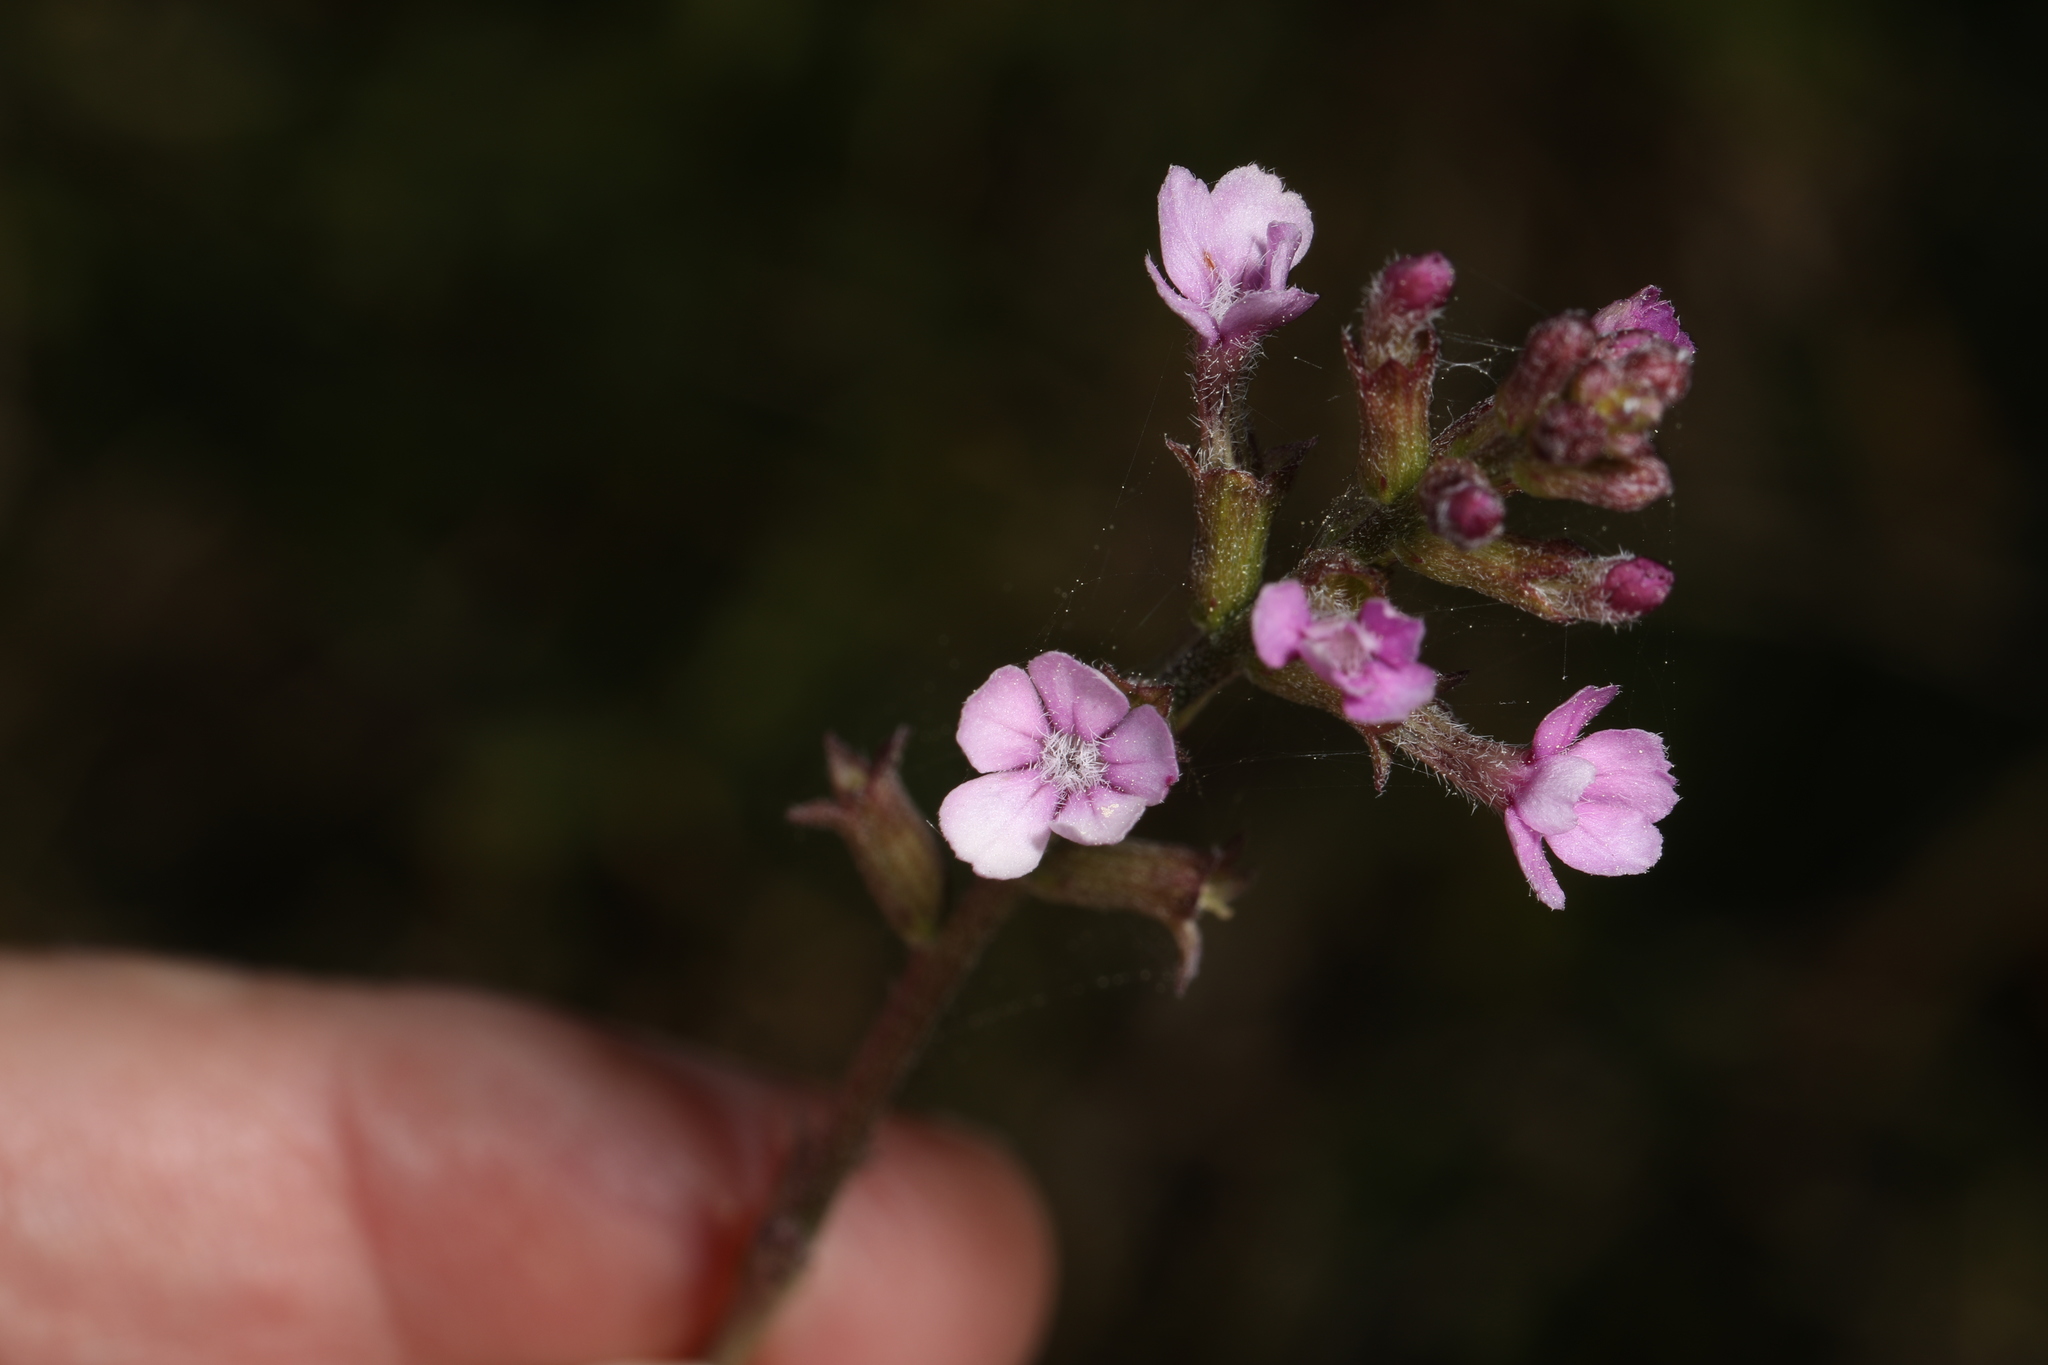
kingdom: Plantae
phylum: Tracheophyta
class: Magnoliopsida
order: Lamiales
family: Orobanchaceae
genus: Buchnera
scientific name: Buchnera floridana
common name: Florida bluehearts
